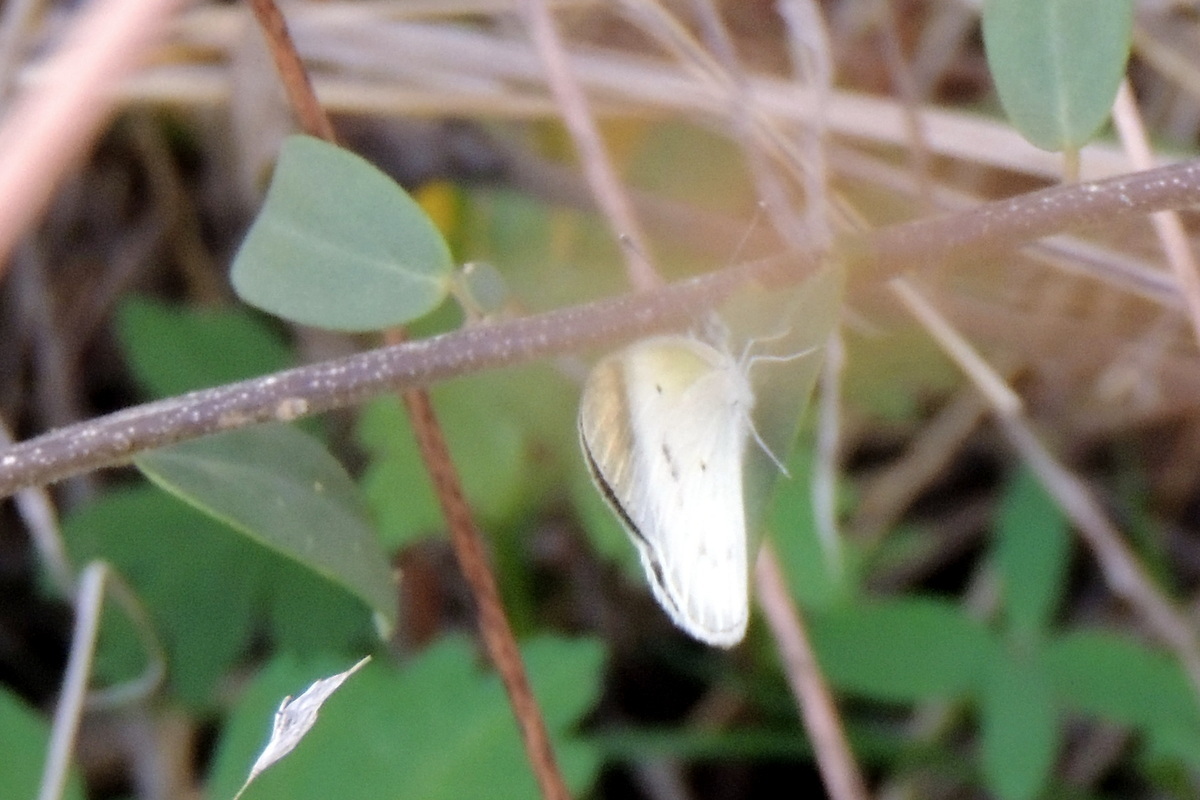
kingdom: Animalia
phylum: Arthropoda
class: Insecta
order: Lepidoptera
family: Pieridae
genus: Colotis
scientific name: Colotis etrida
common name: Little orange tip
